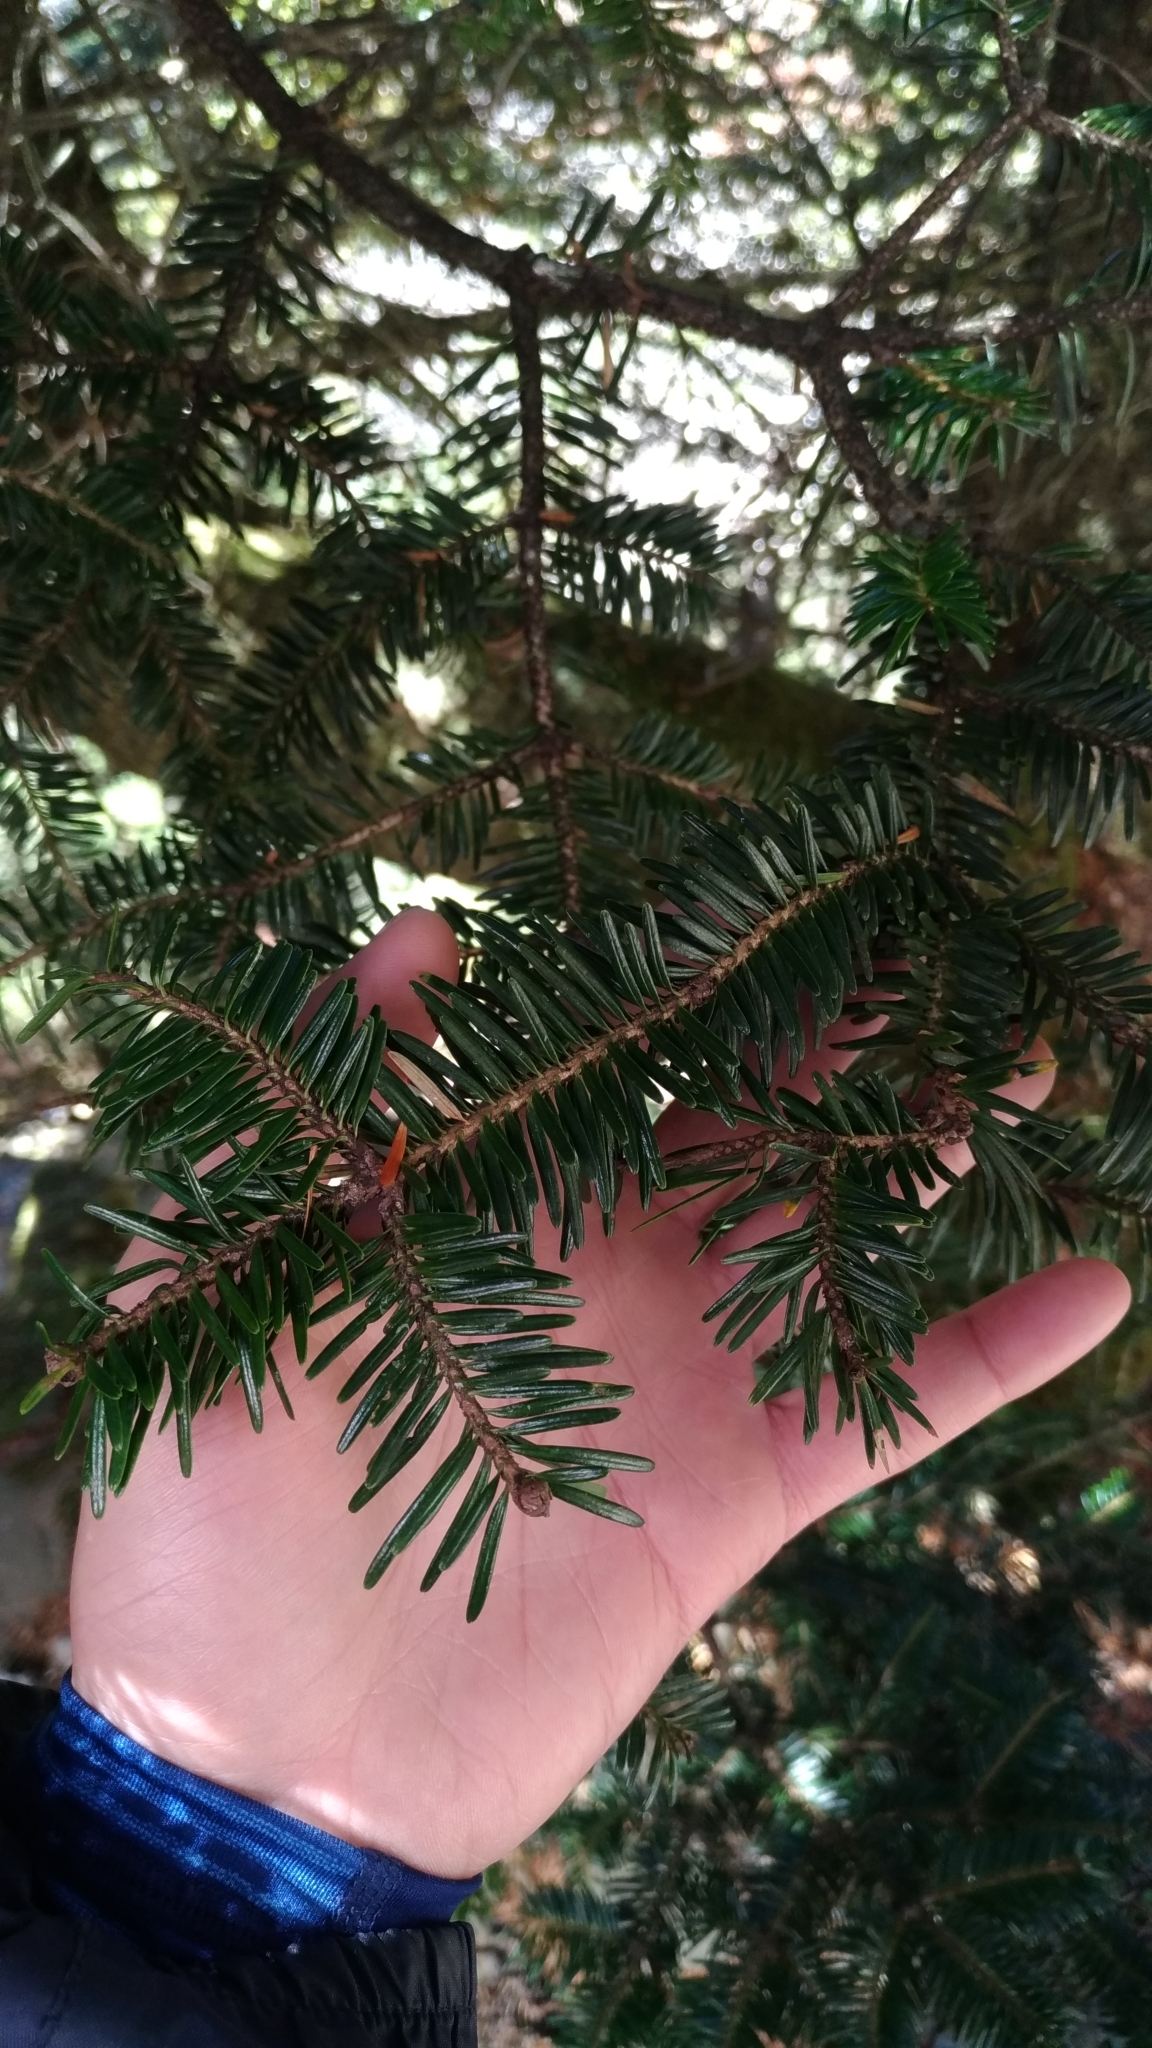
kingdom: Plantae
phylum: Tracheophyta
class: Pinopsida
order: Pinales
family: Pinaceae
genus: Abies
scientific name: Abies kawakamii
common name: Taiwan fir
